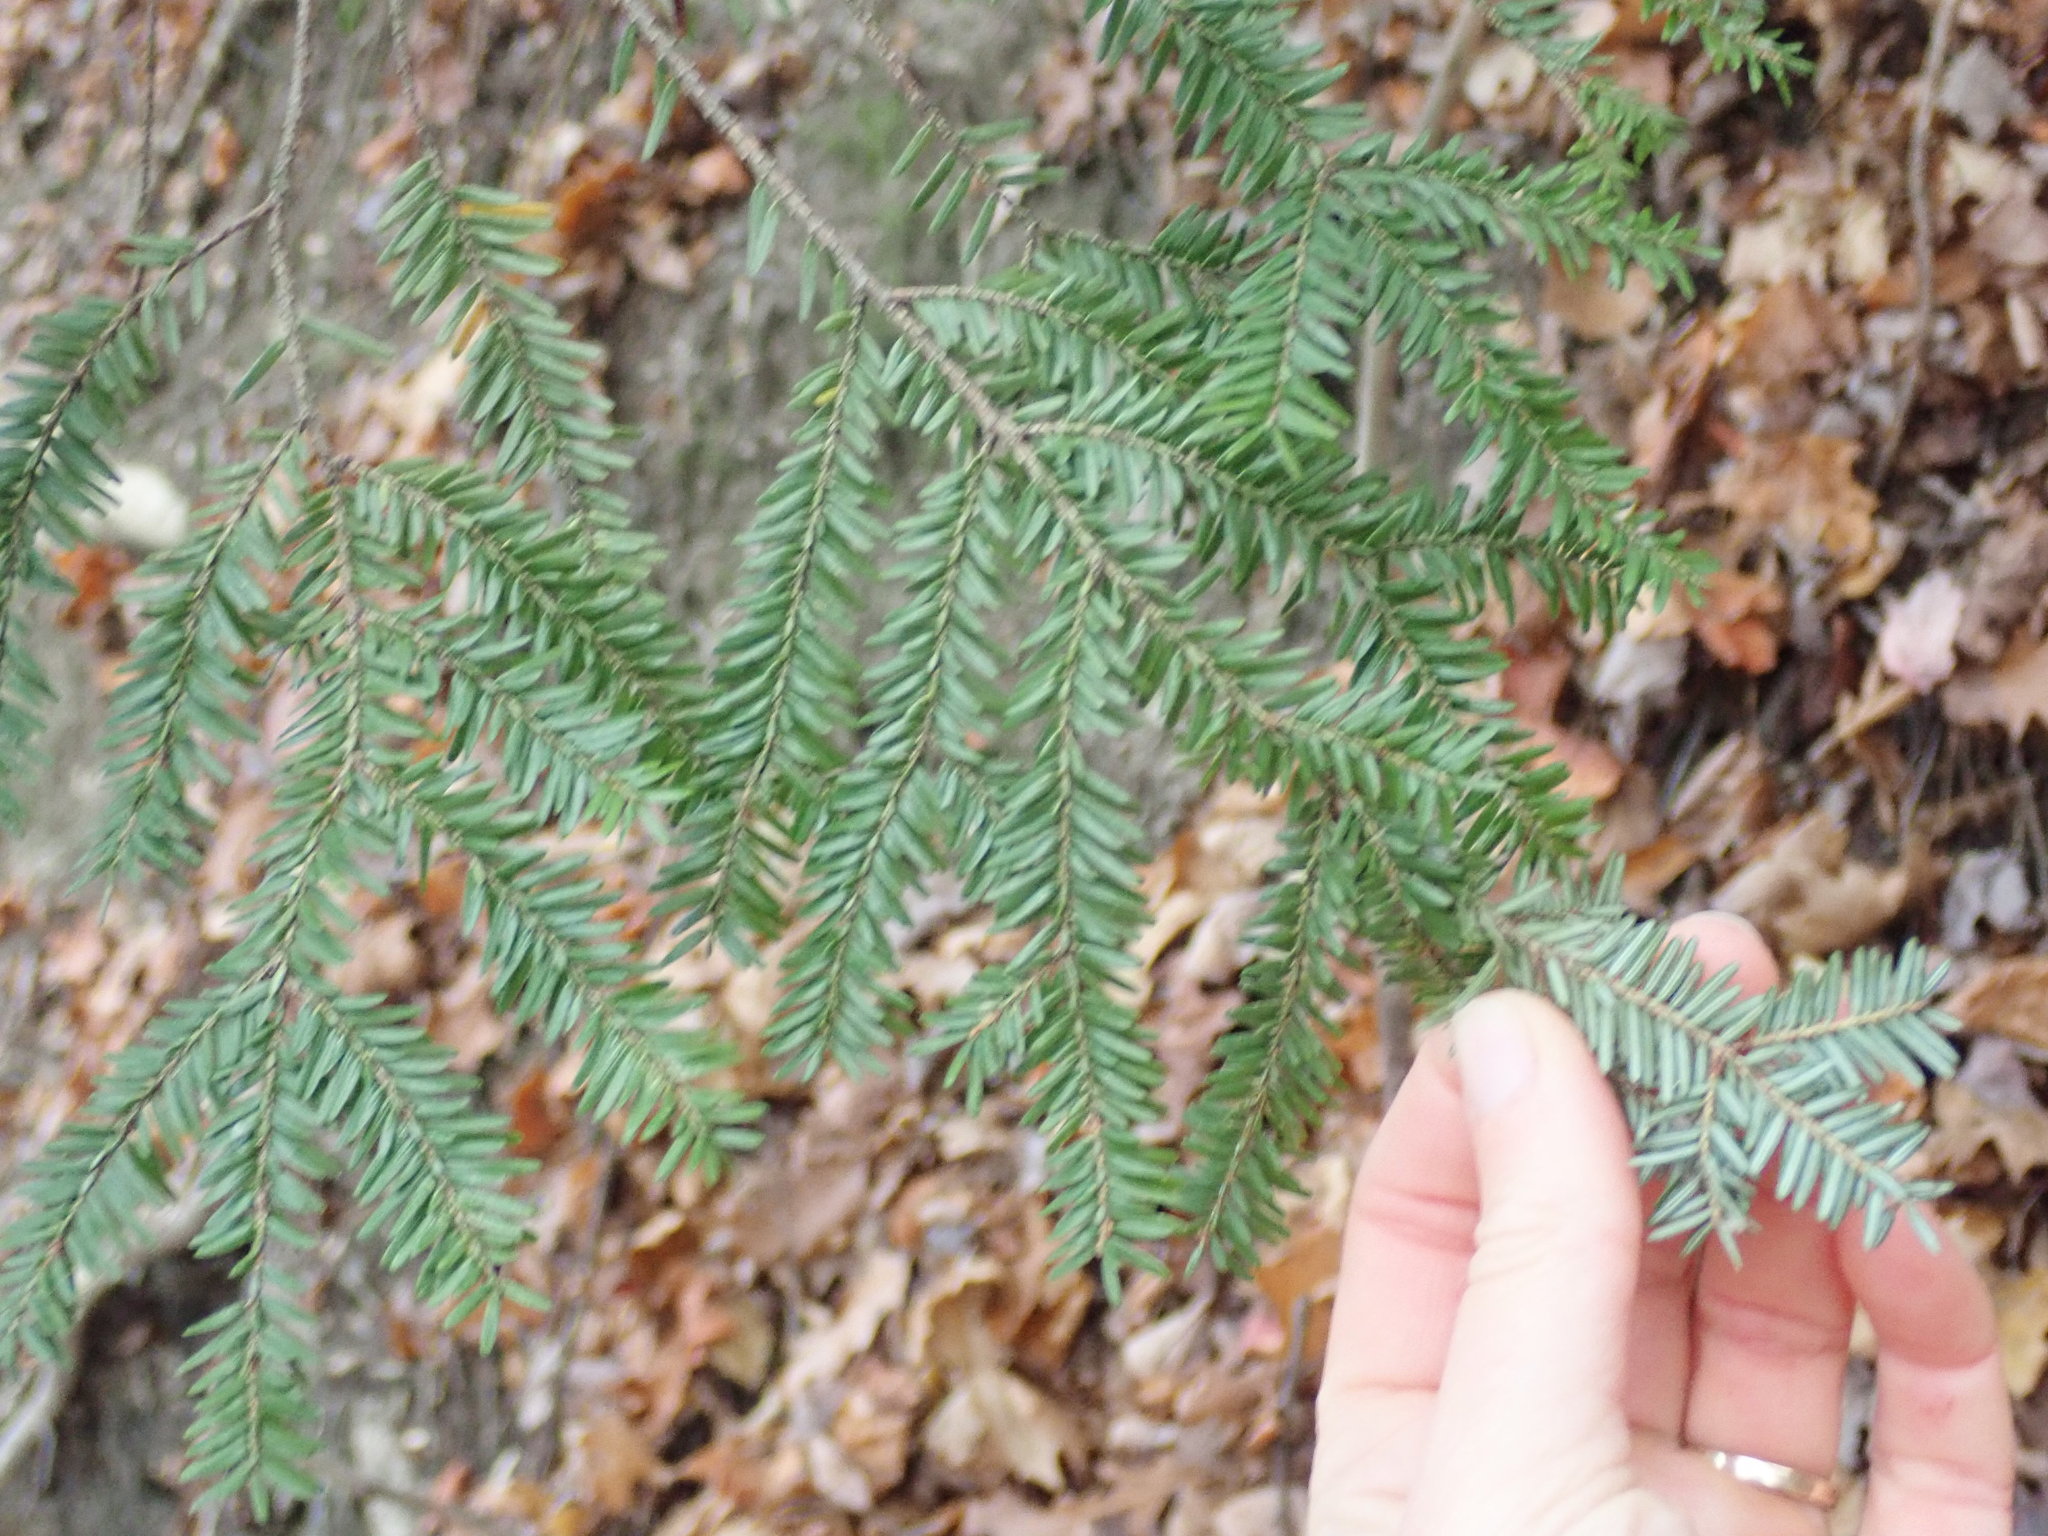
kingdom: Plantae
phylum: Tracheophyta
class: Pinopsida
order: Pinales
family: Pinaceae
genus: Tsuga
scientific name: Tsuga canadensis
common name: Eastern hemlock
